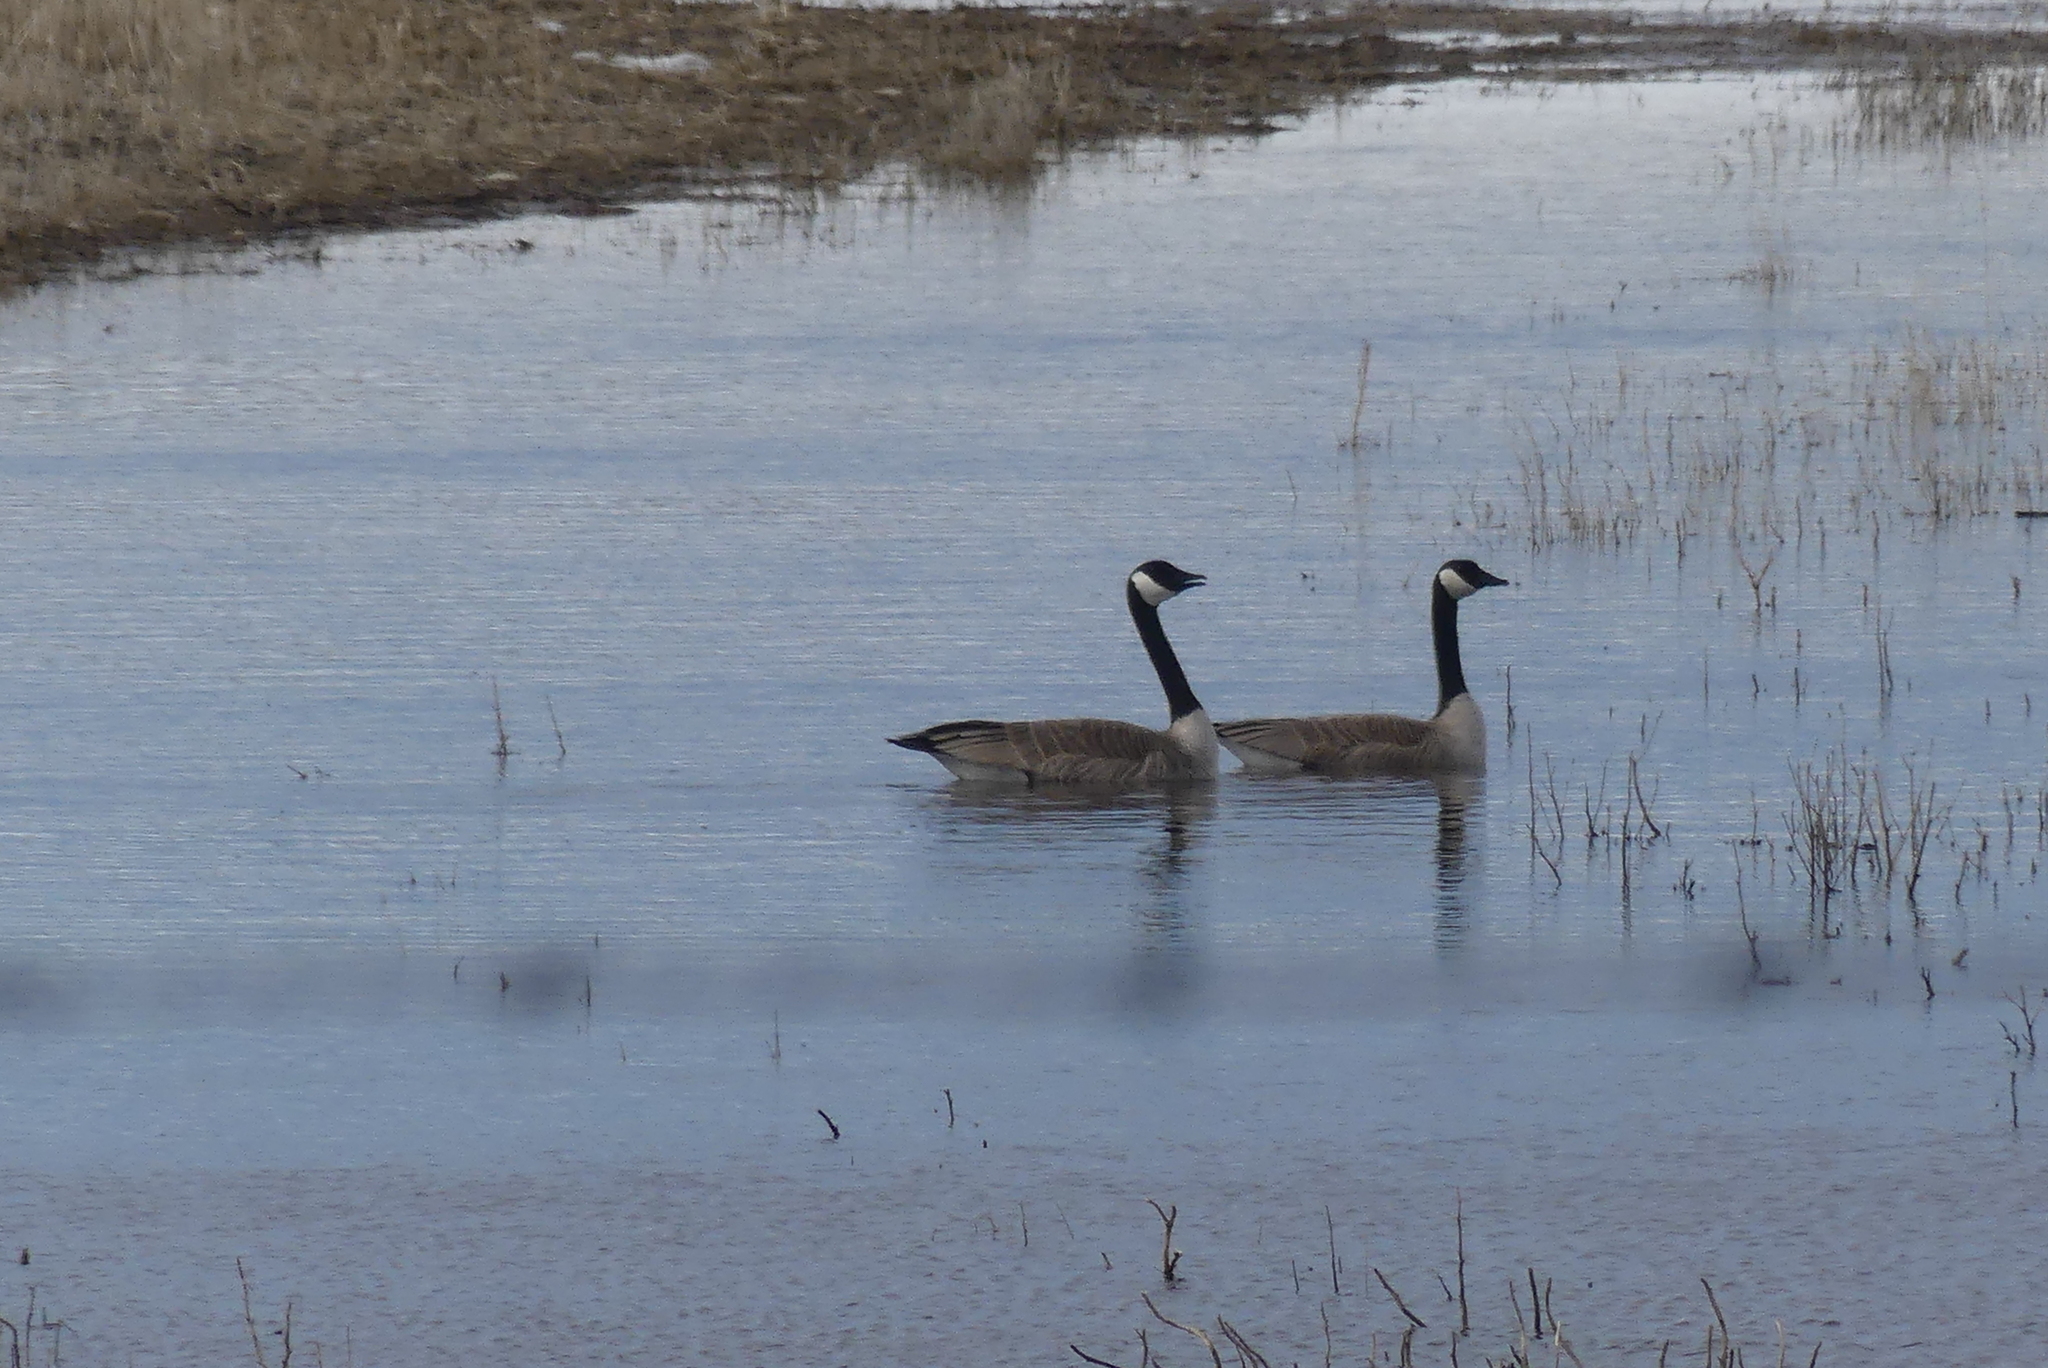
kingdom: Animalia
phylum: Chordata
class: Aves
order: Anseriformes
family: Anatidae
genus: Branta
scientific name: Branta canadensis
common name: Canada goose
